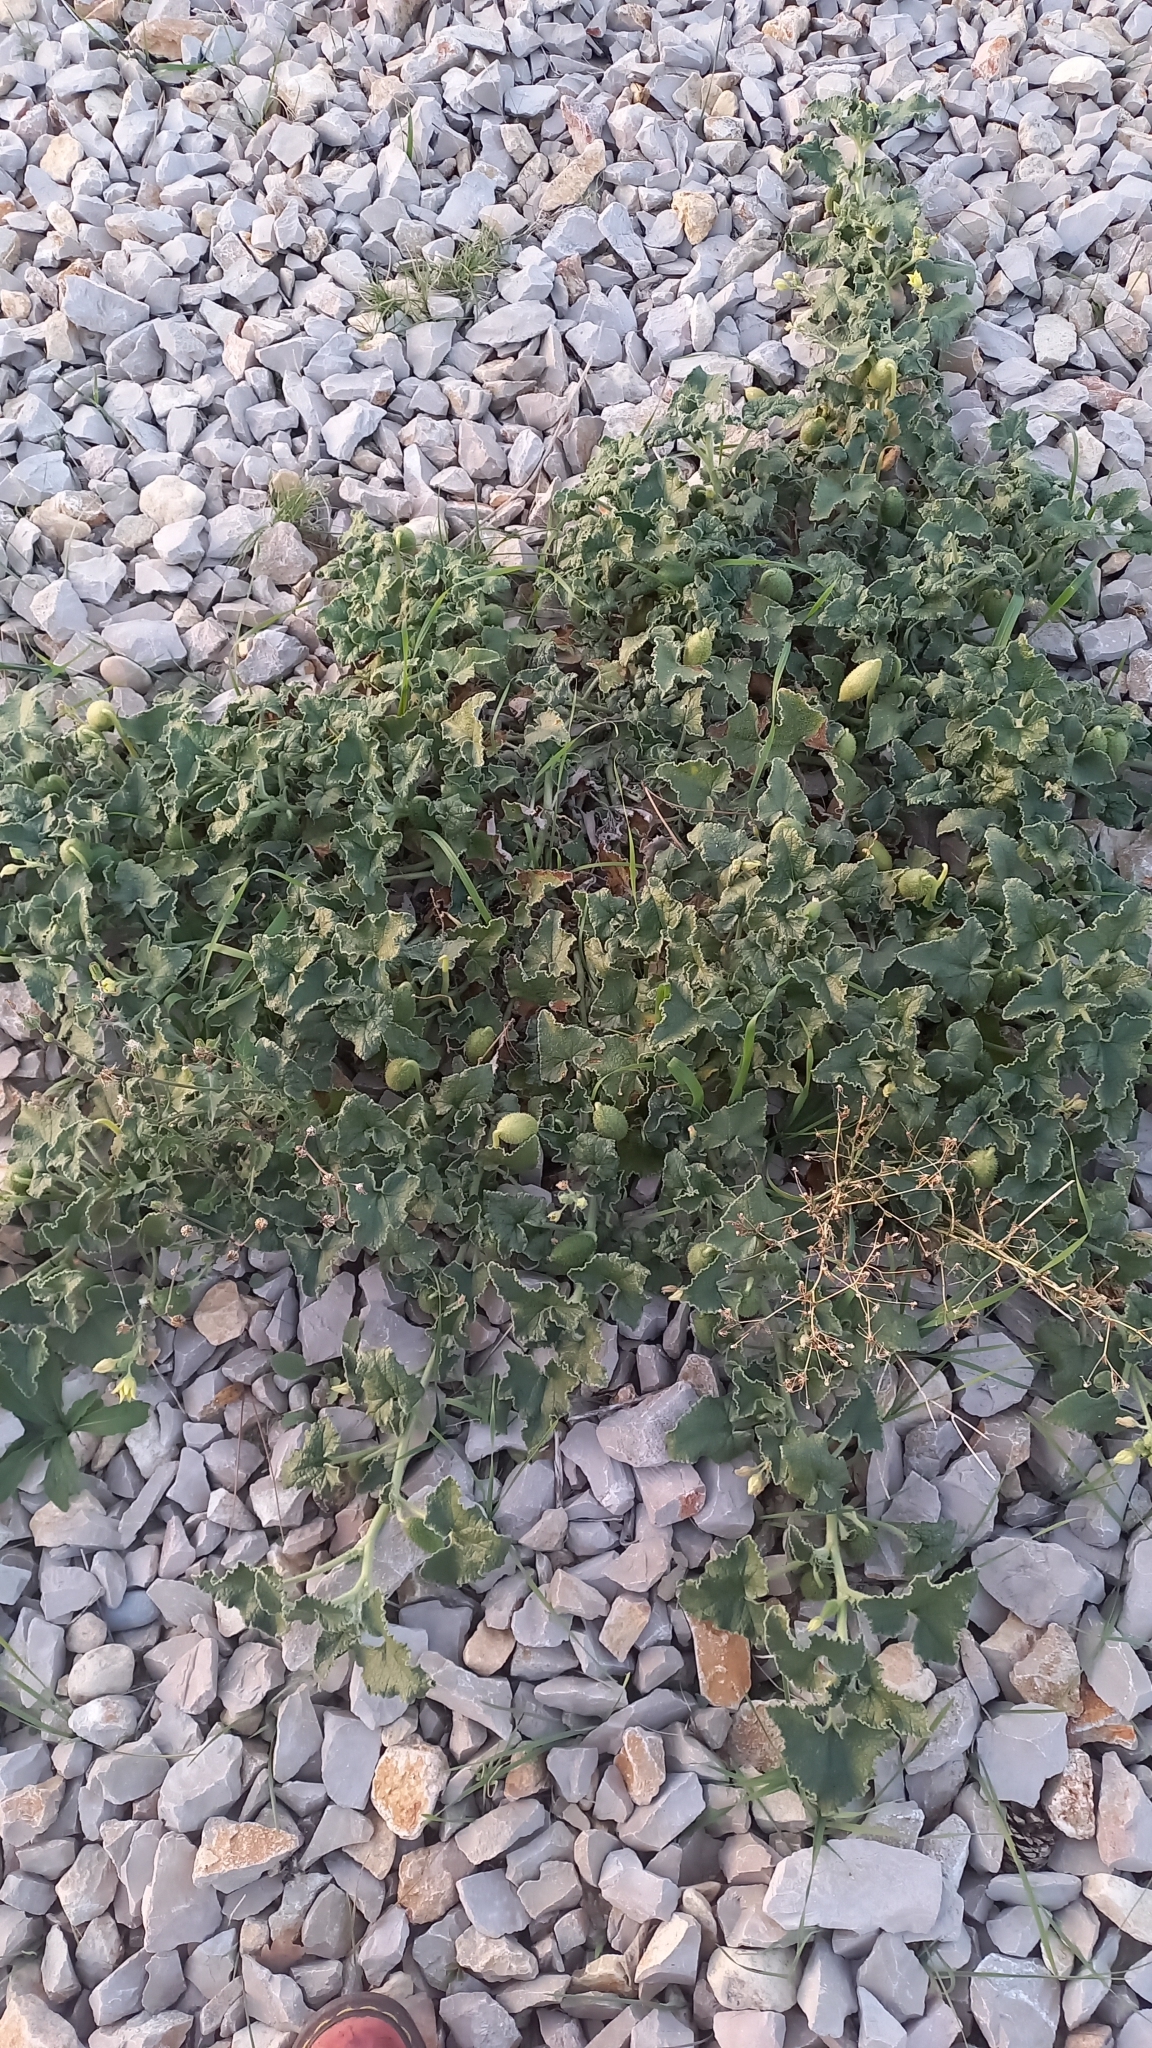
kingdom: Plantae
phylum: Tracheophyta
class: Magnoliopsida
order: Cucurbitales
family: Cucurbitaceae
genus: Ecballium
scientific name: Ecballium elaterium
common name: Squirting cucumber
